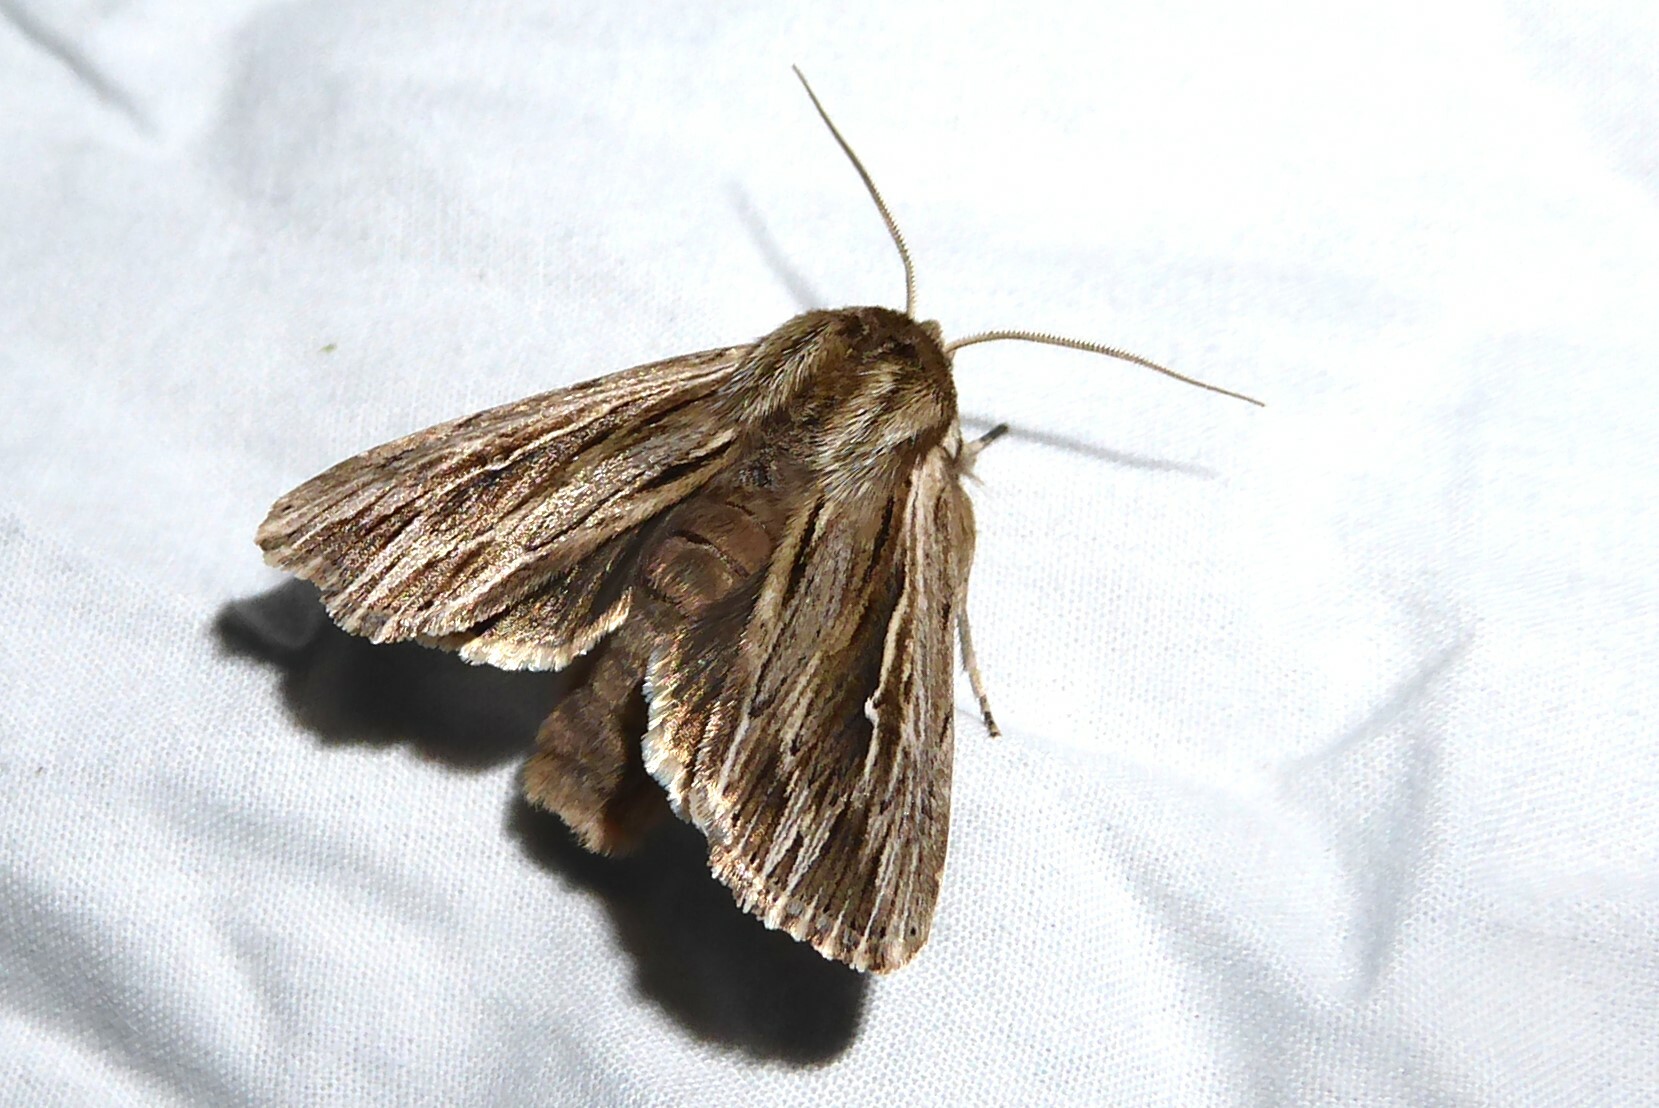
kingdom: Animalia
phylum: Arthropoda
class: Insecta
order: Lepidoptera
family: Noctuidae
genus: Persectania
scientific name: Persectania aversa
